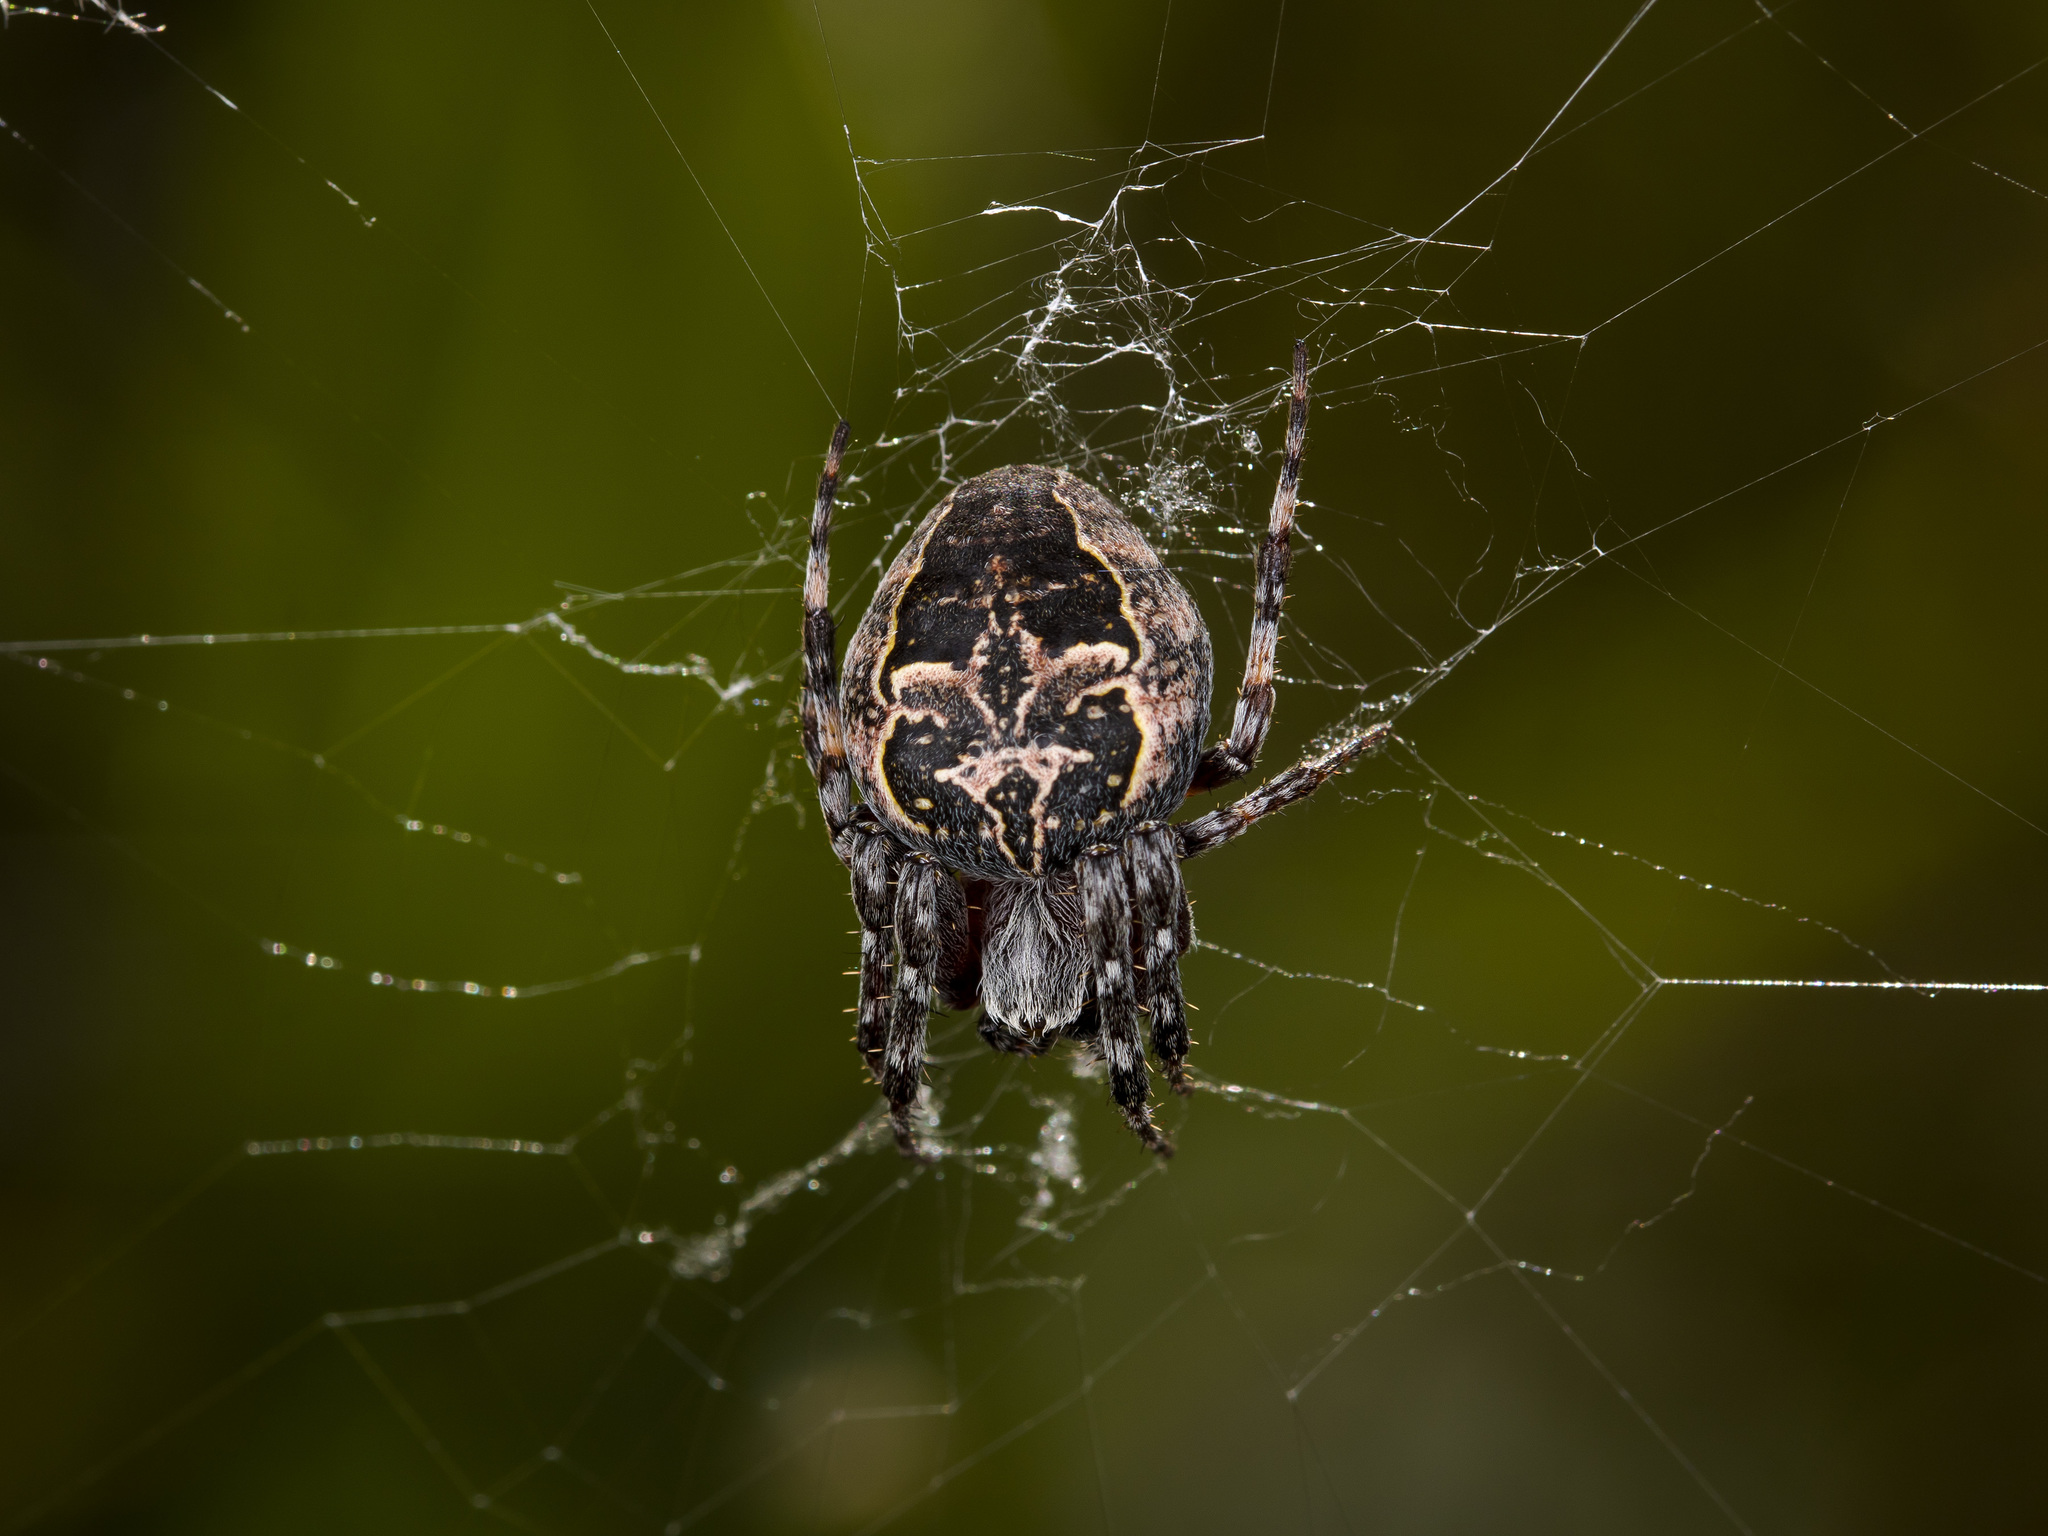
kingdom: Animalia
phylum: Arthropoda
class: Arachnida
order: Araneae
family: Araneidae
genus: Larinioides
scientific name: Larinioides patagiatus
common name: Ornamental orbweaver
